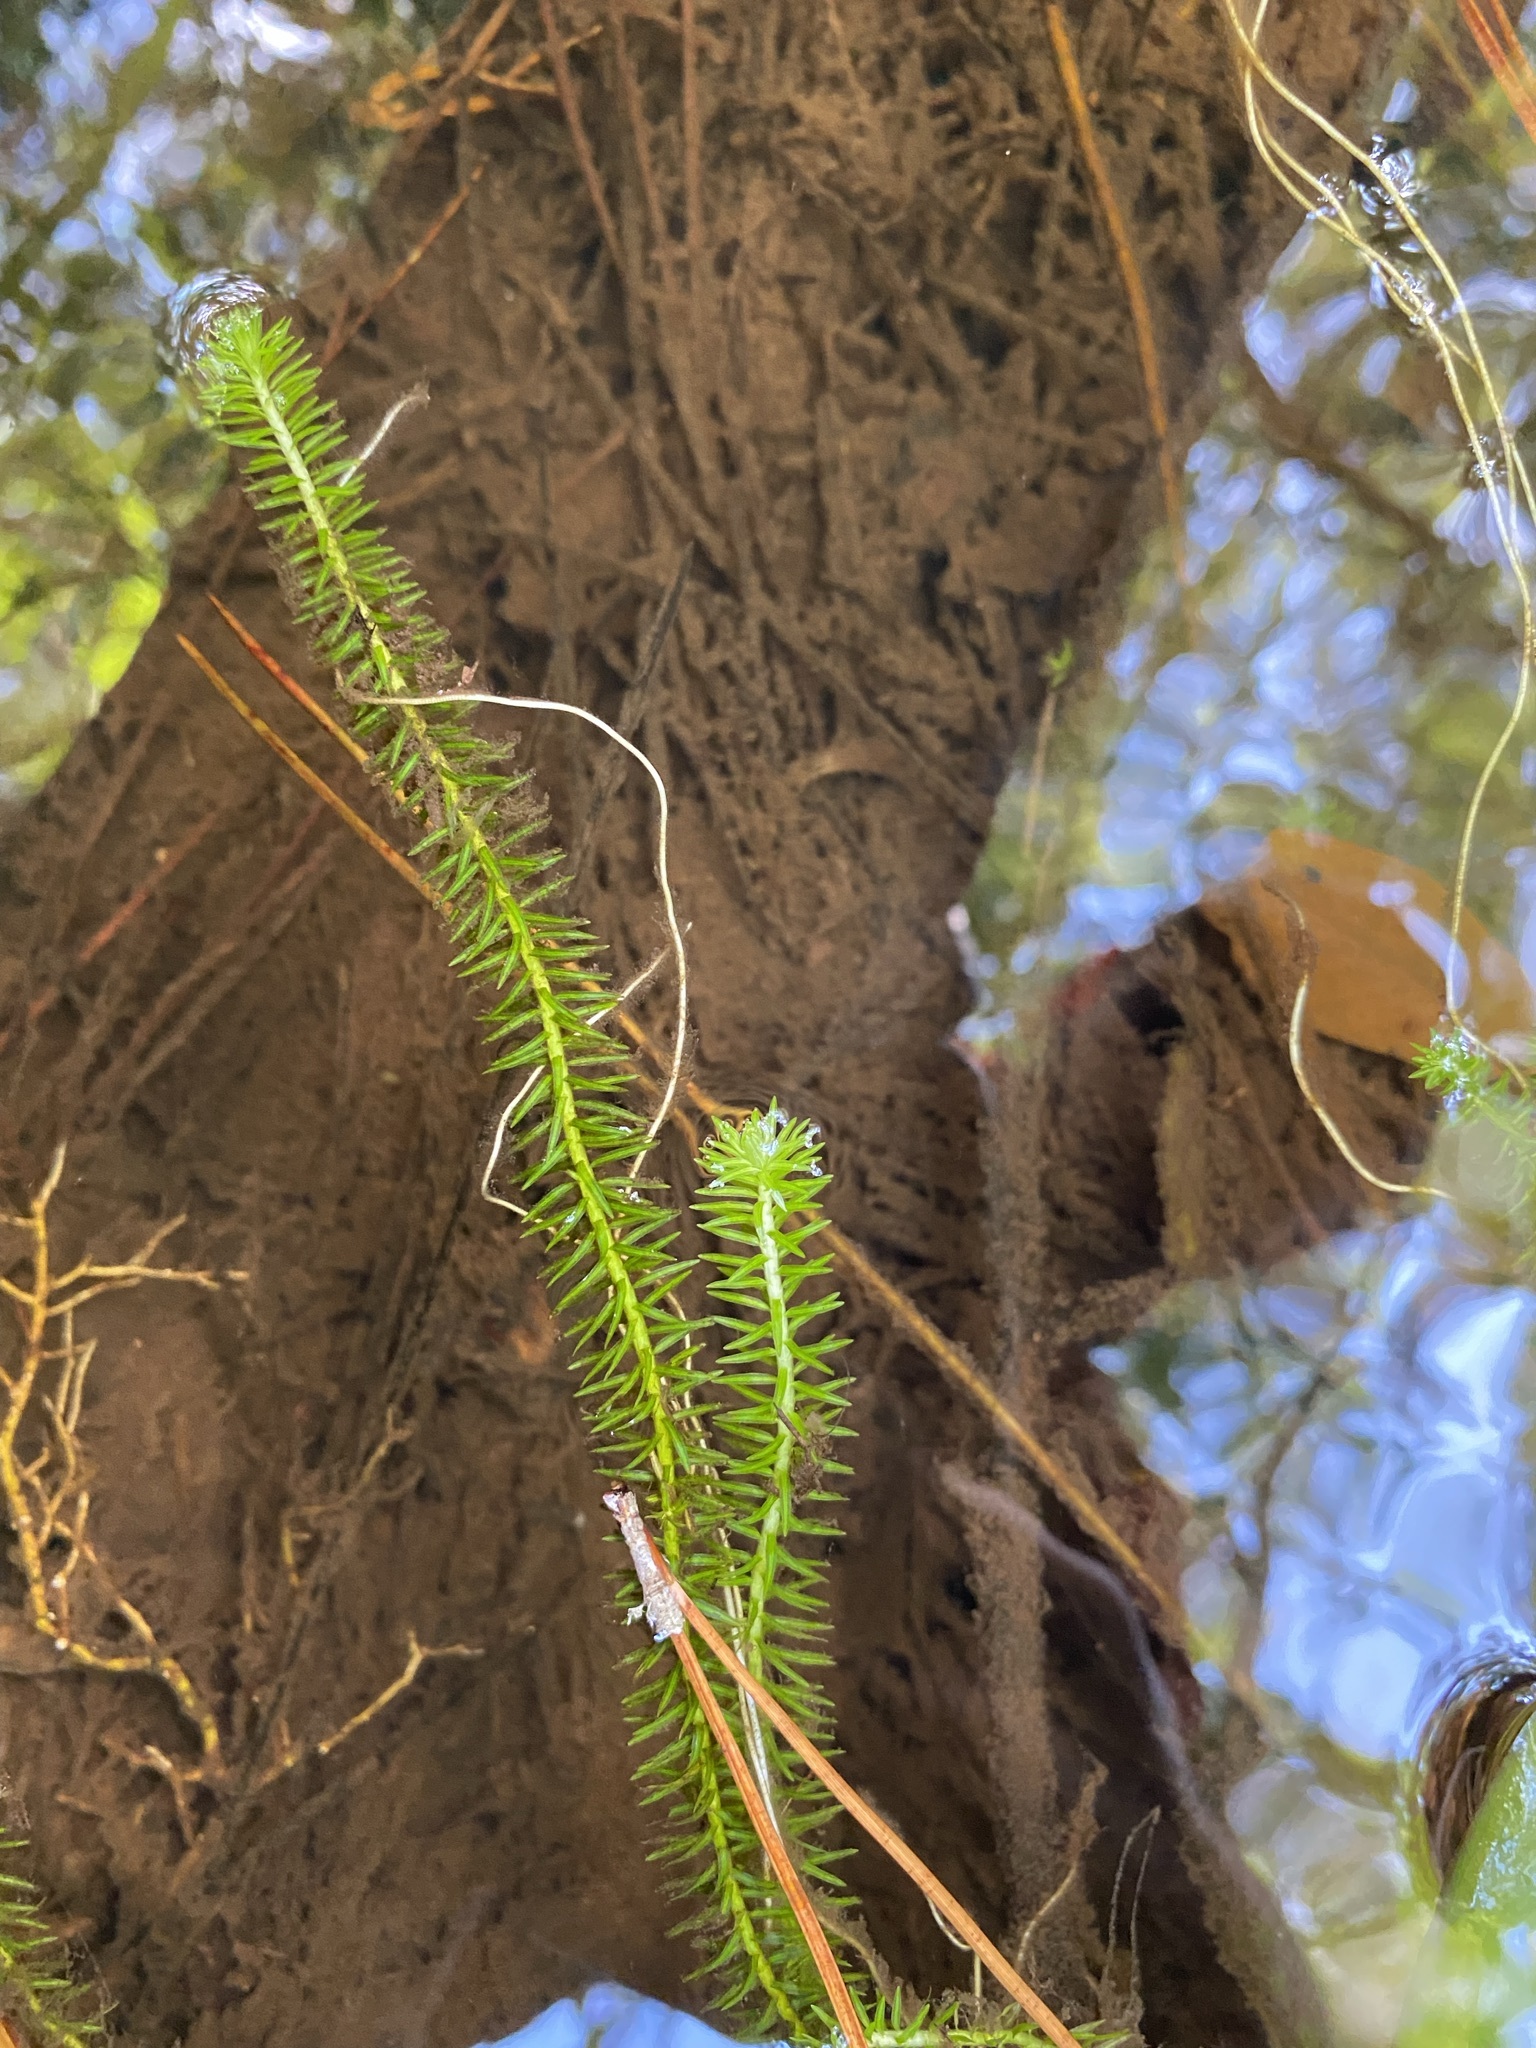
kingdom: Plantae
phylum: Tracheophyta
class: Liliopsida
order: Poales
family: Mayacaceae
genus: Mayaca
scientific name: Mayaca fluviatilis
